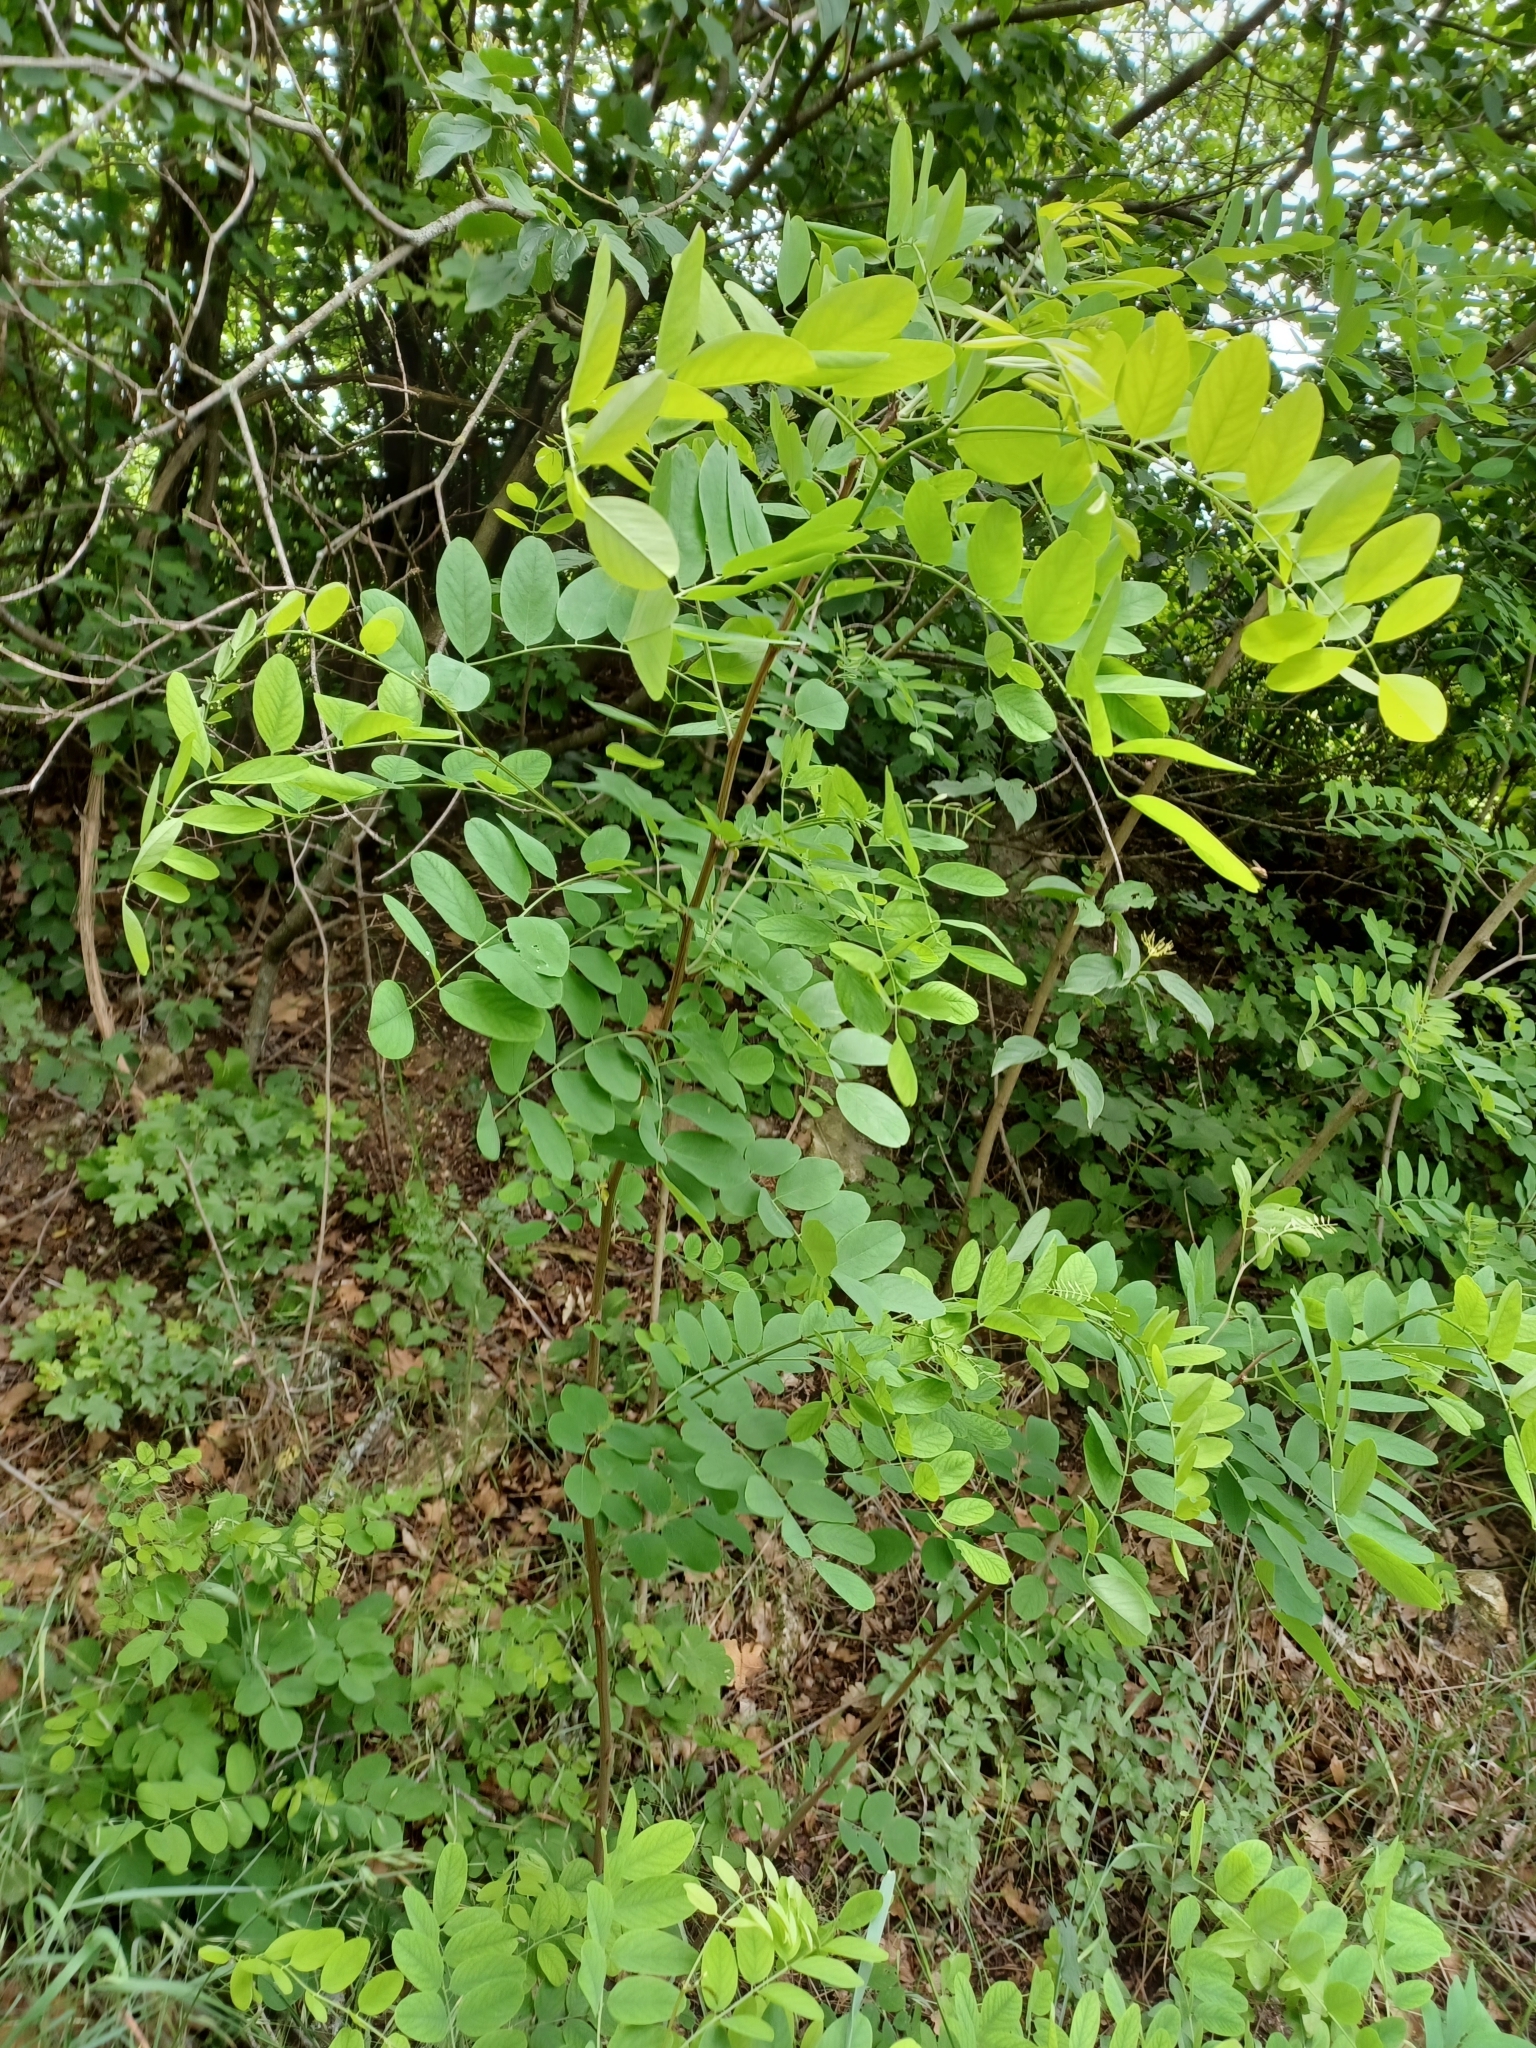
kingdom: Plantae
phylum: Tracheophyta
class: Magnoliopsida
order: Fabales
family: Fabaceae
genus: Robinia
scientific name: Robinia pseudoacacia
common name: Black locust
